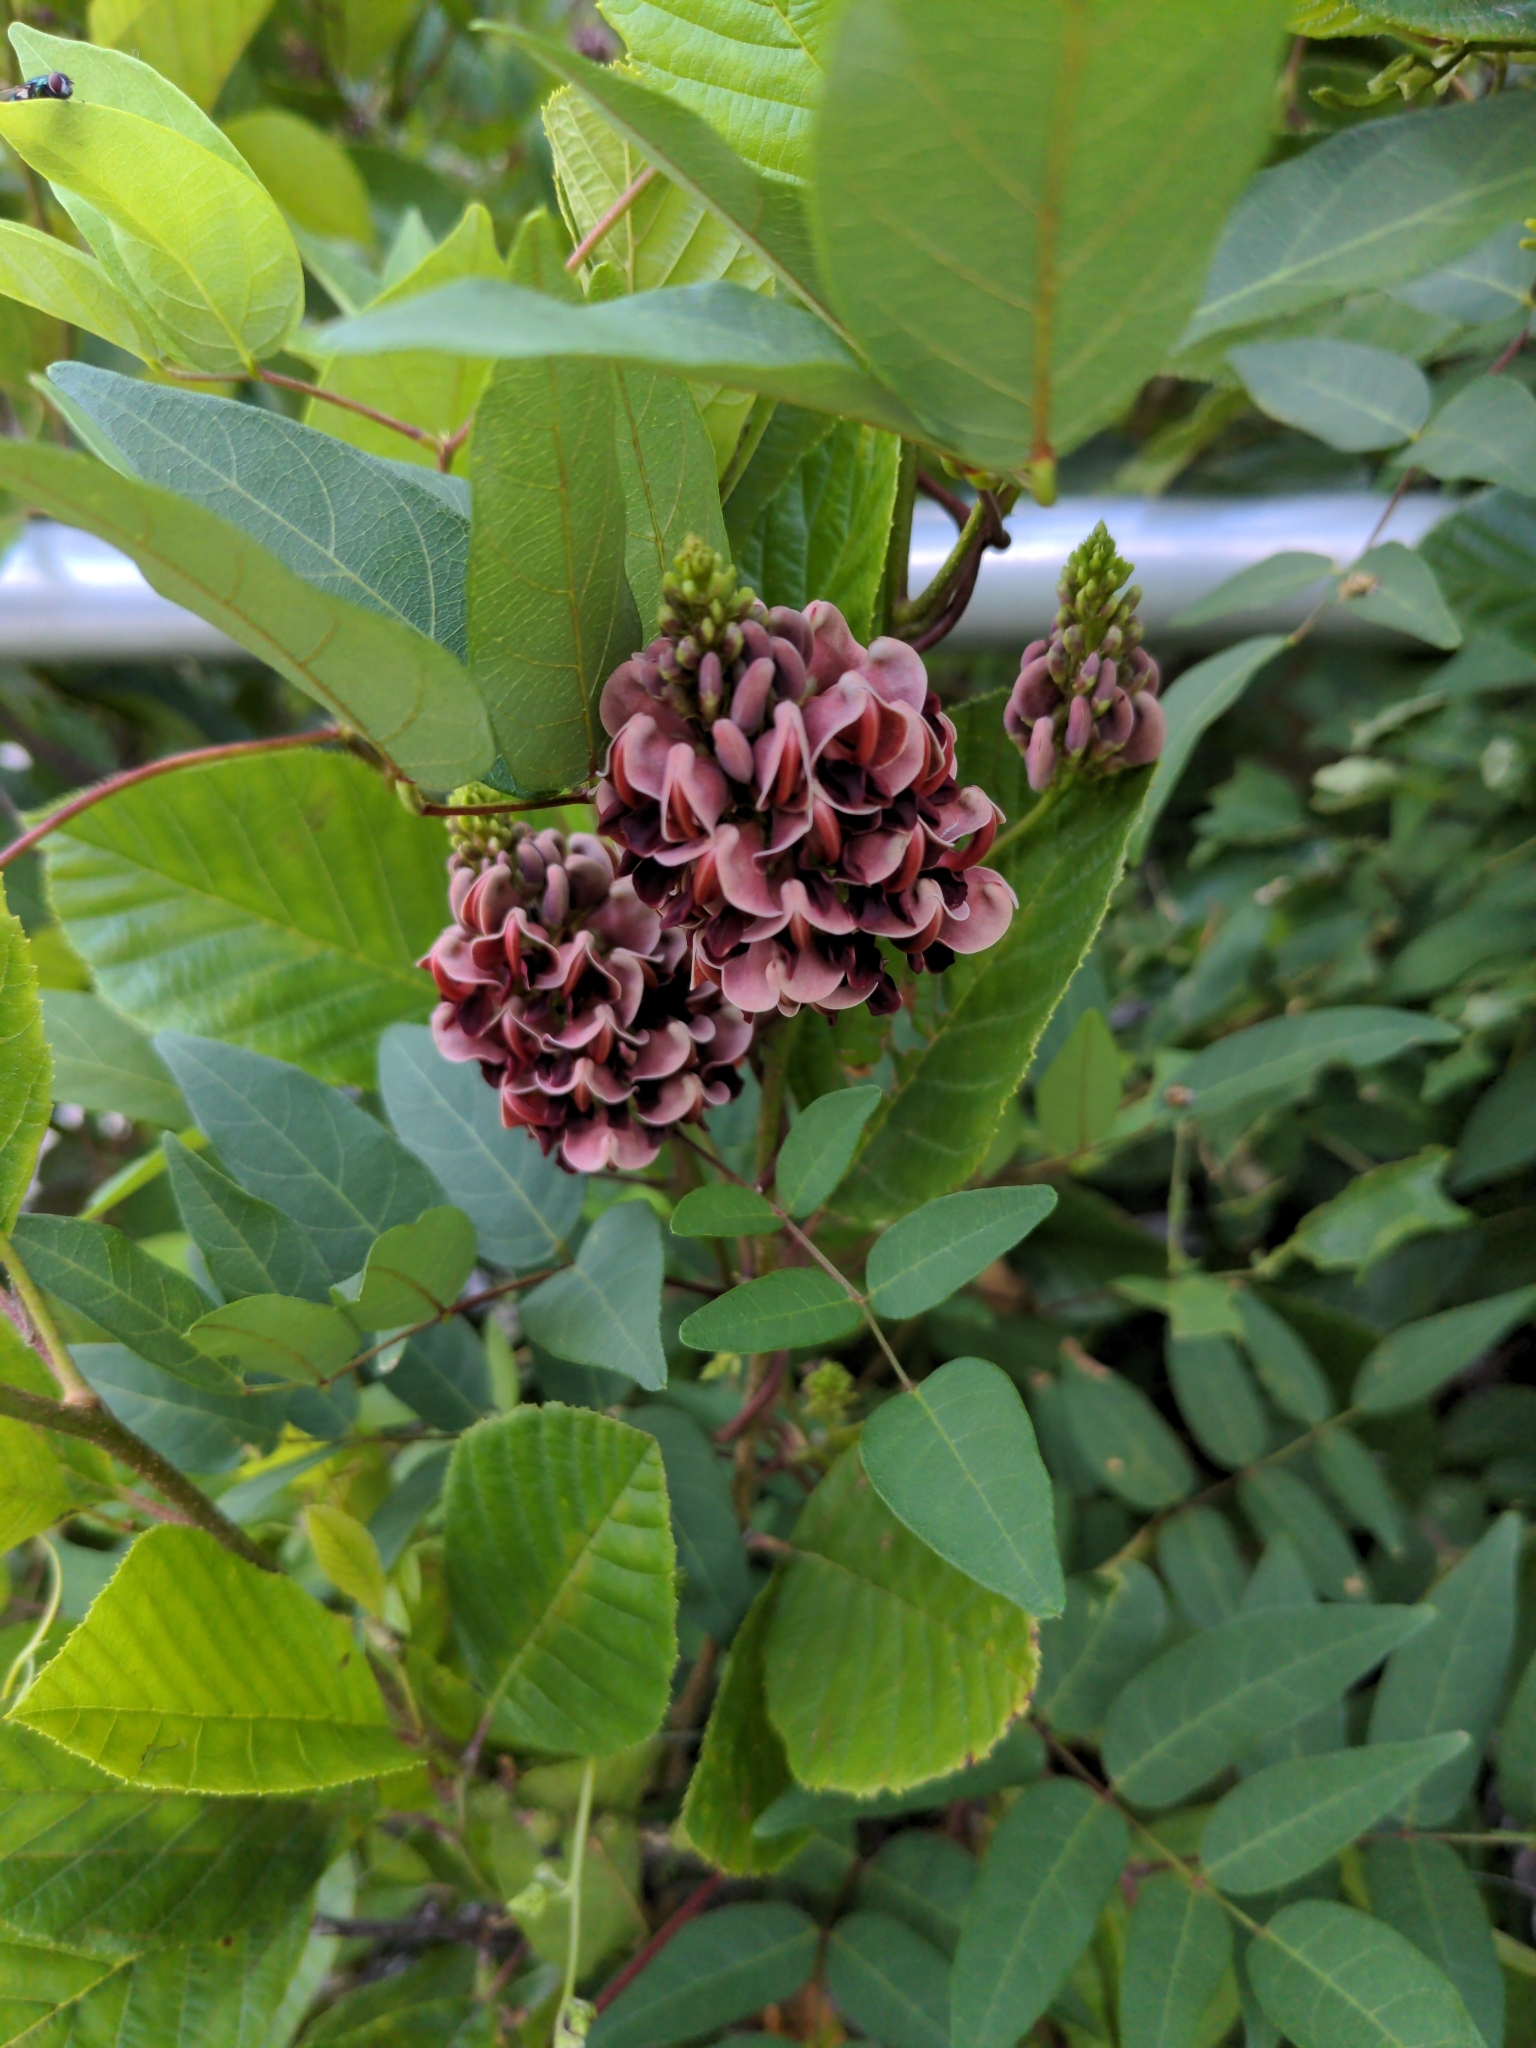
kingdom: Plantae
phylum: Tracheophyta
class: Magnoliopsida
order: Fabales
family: Fabaceae
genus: Apios
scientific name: Apios americana
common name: American potato-bean
